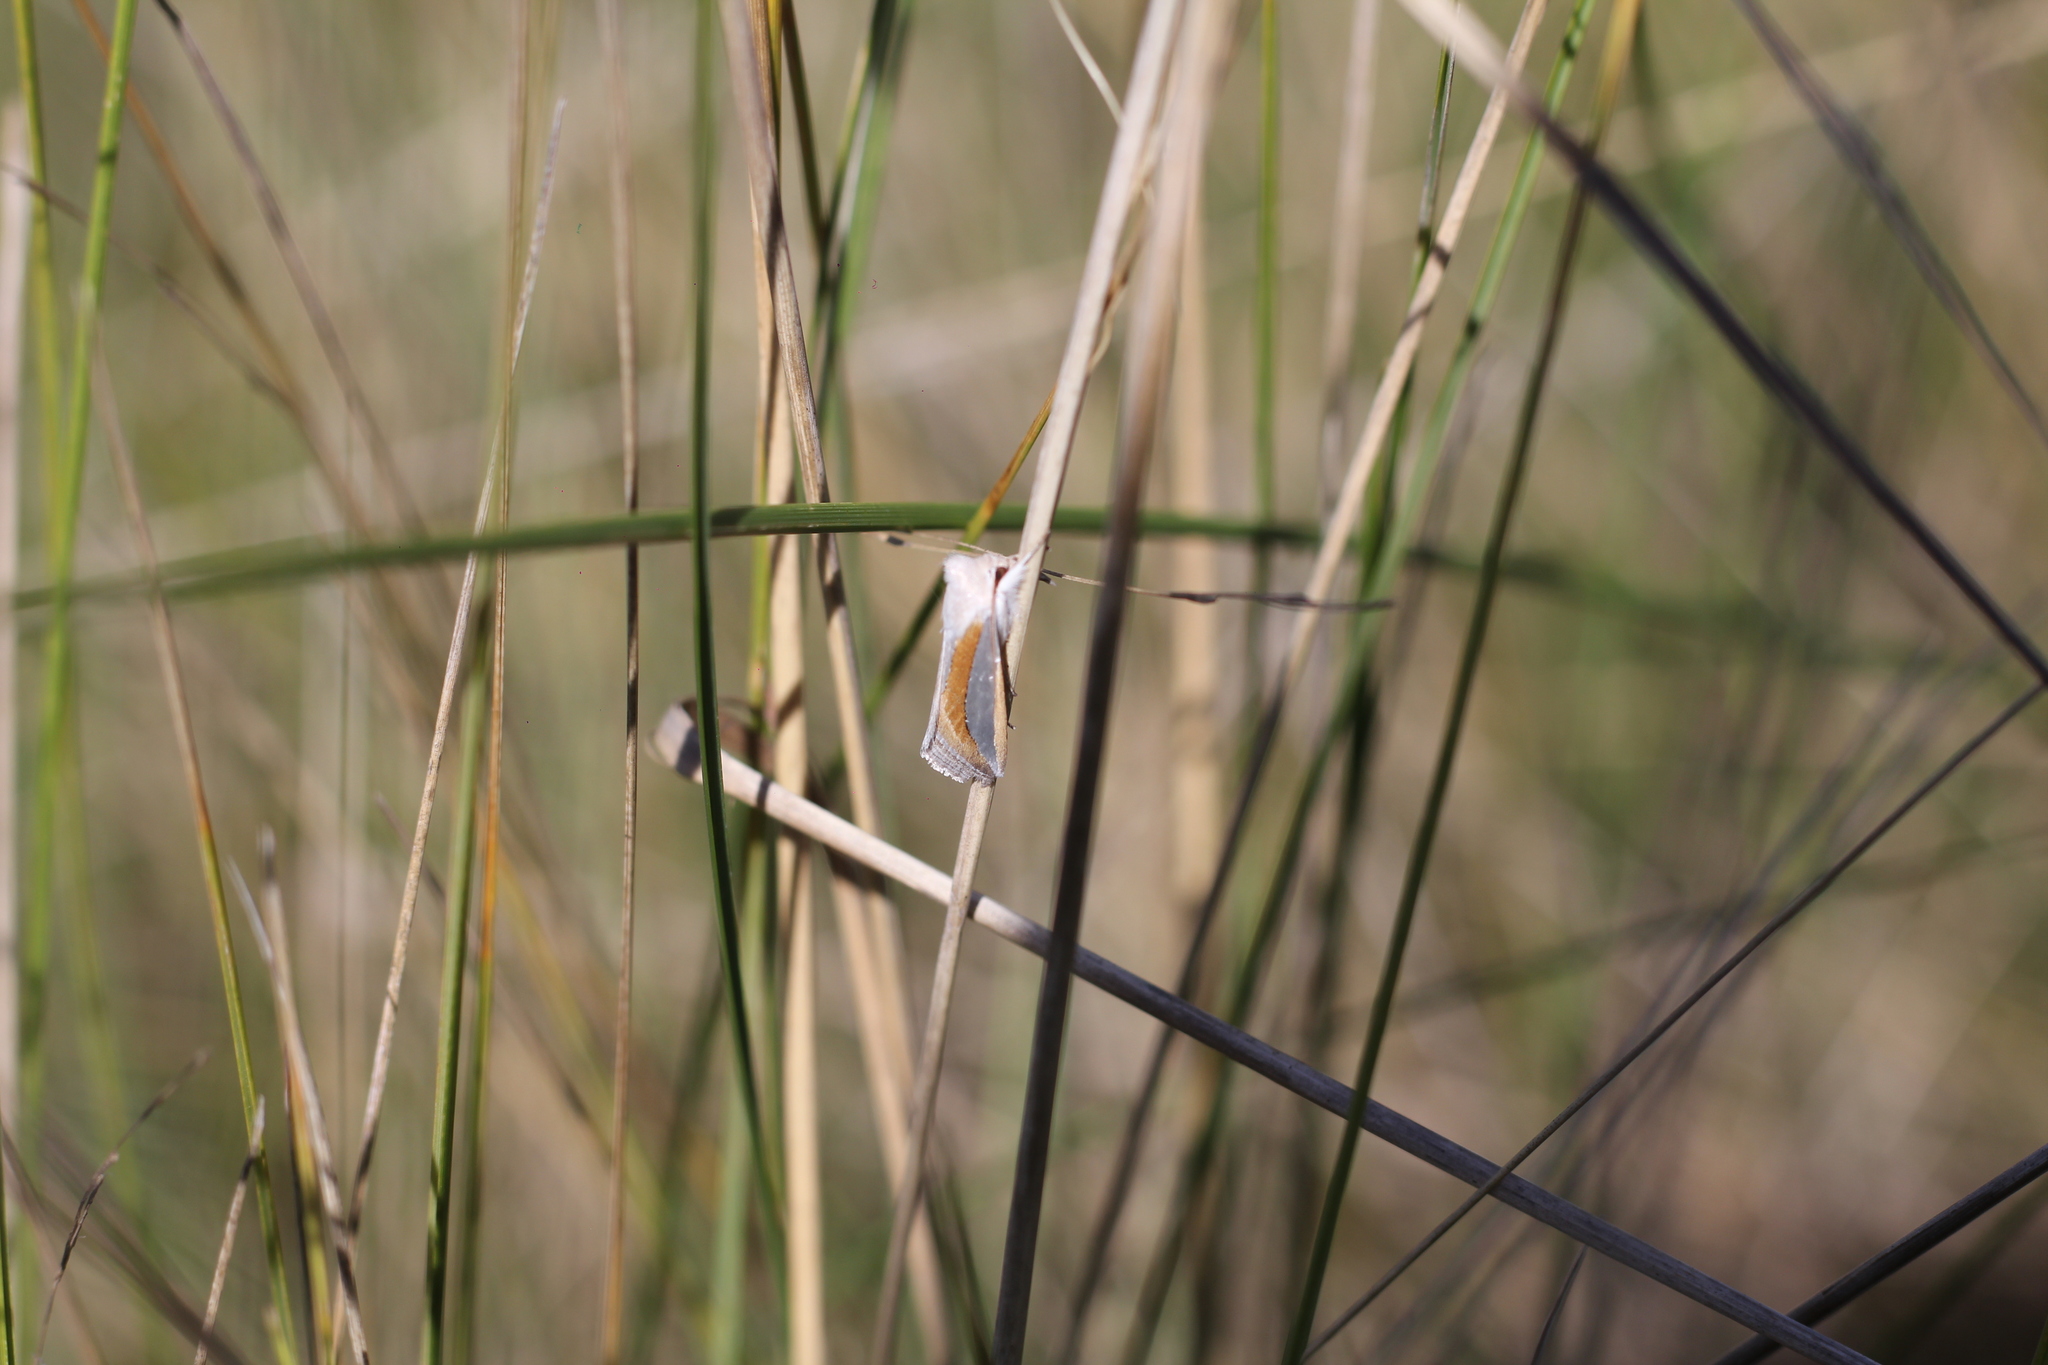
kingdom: Animalia
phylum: Arthropoda
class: Insecta
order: Lepidoptera
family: Noctuidae
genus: Cucullia
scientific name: Cucullia argyrina
